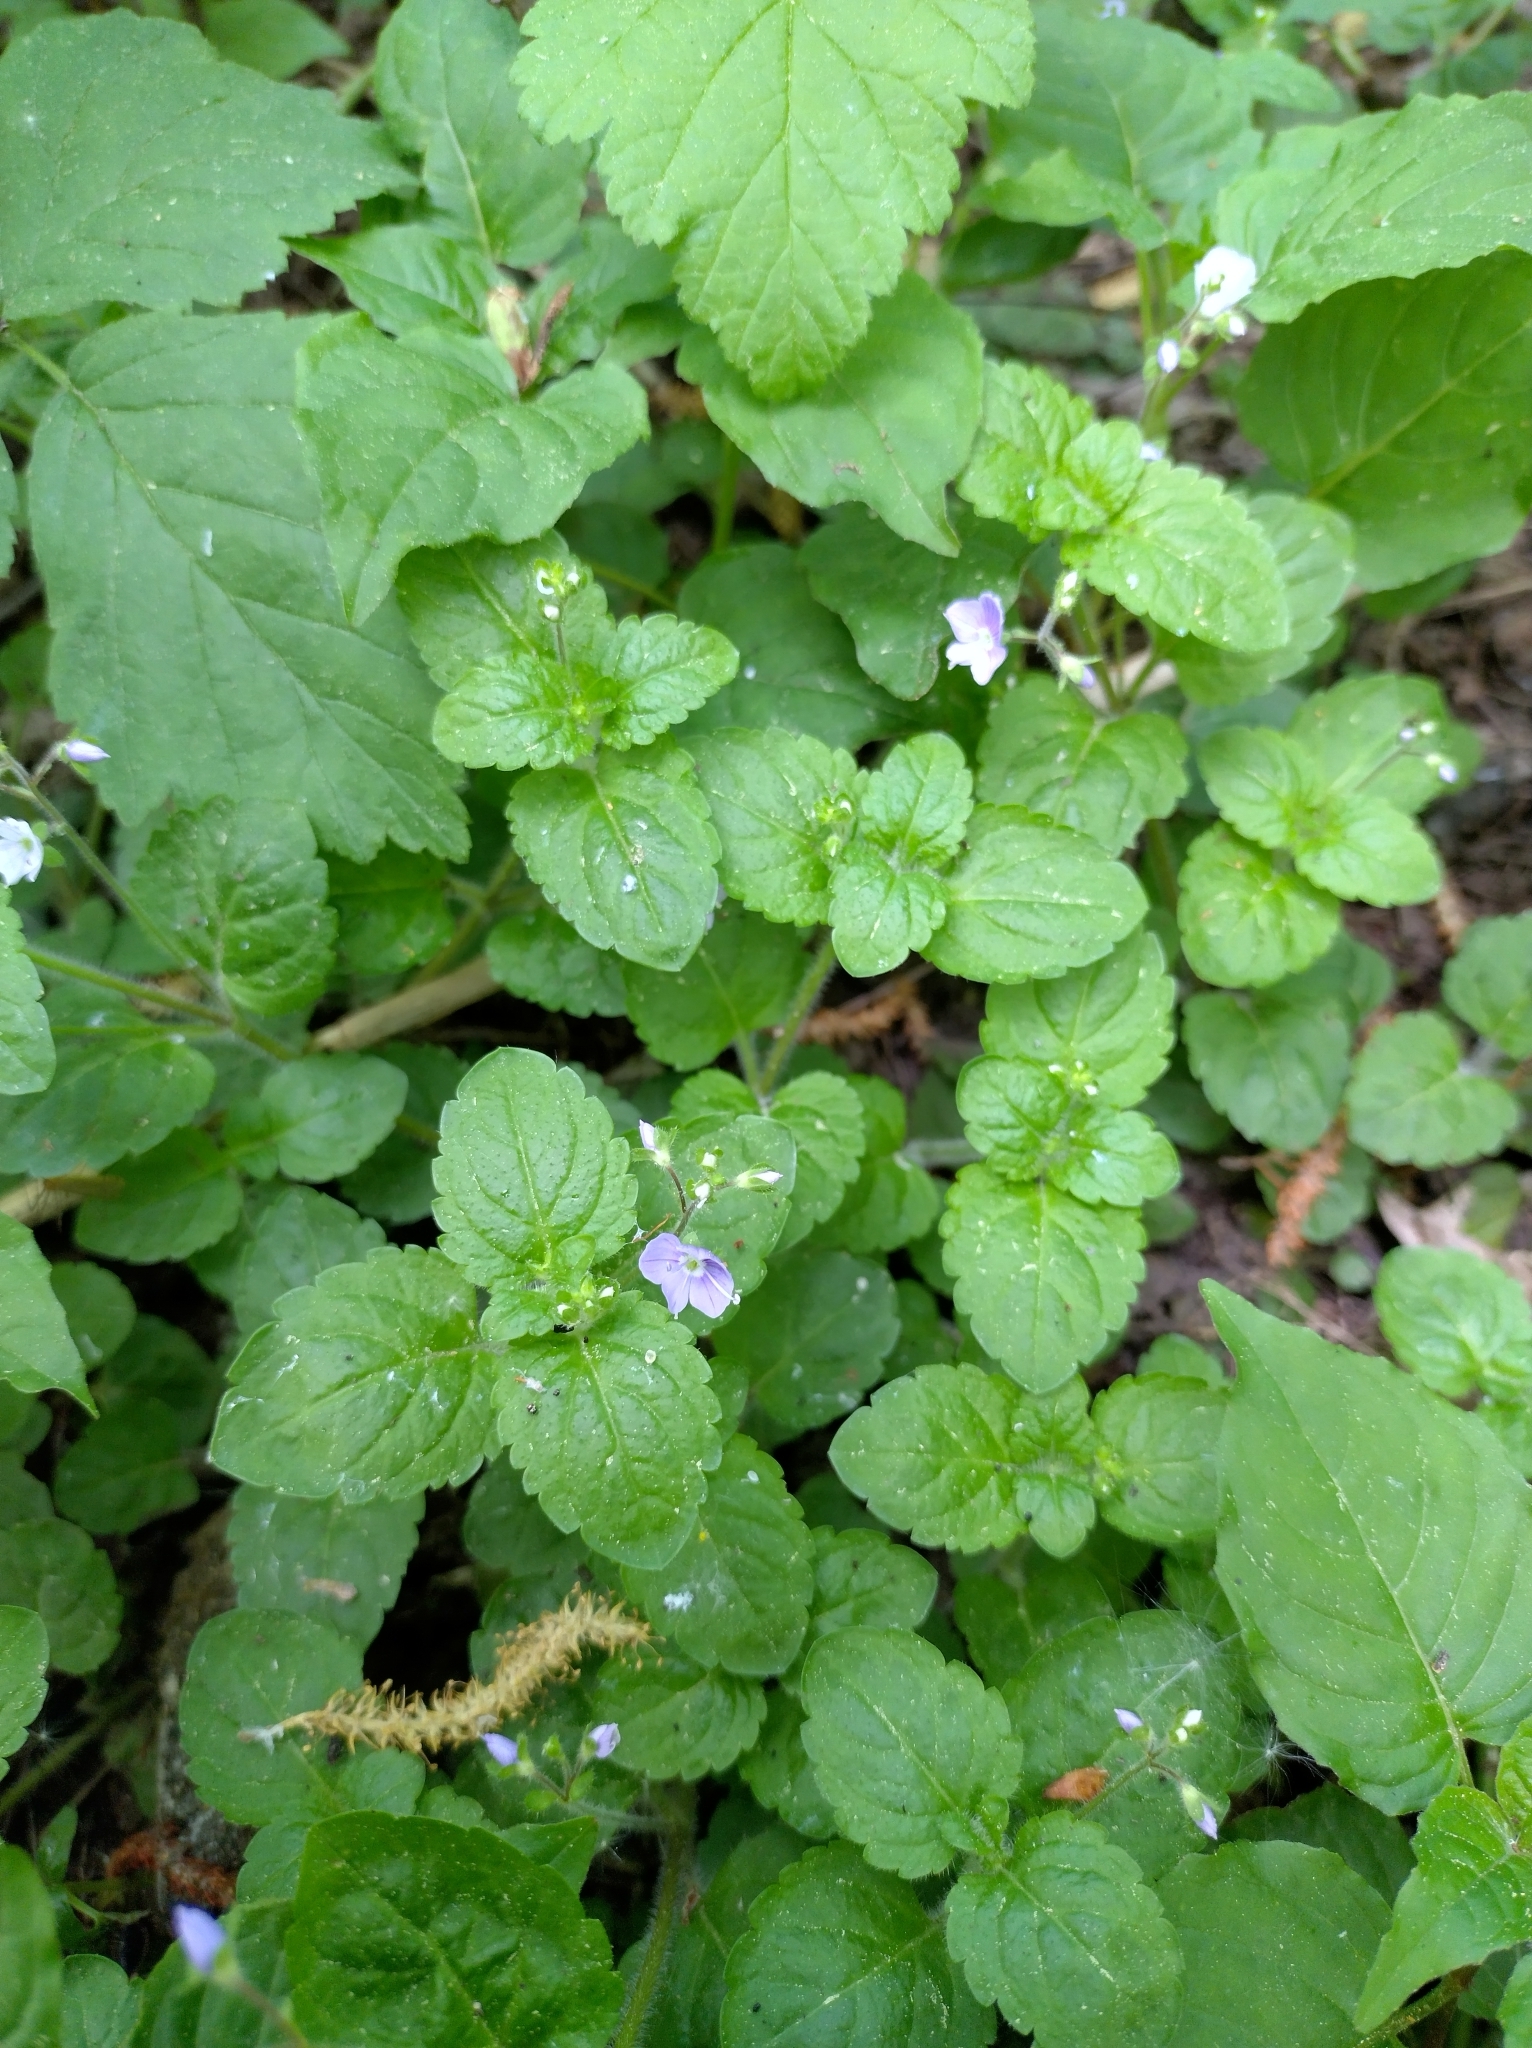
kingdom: Plantae
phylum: Tracheophyta
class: Magnoliopsida
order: Lamiales
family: Plantaginaceae
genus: Veronica
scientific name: Veronica montana
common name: Wood speedwell
